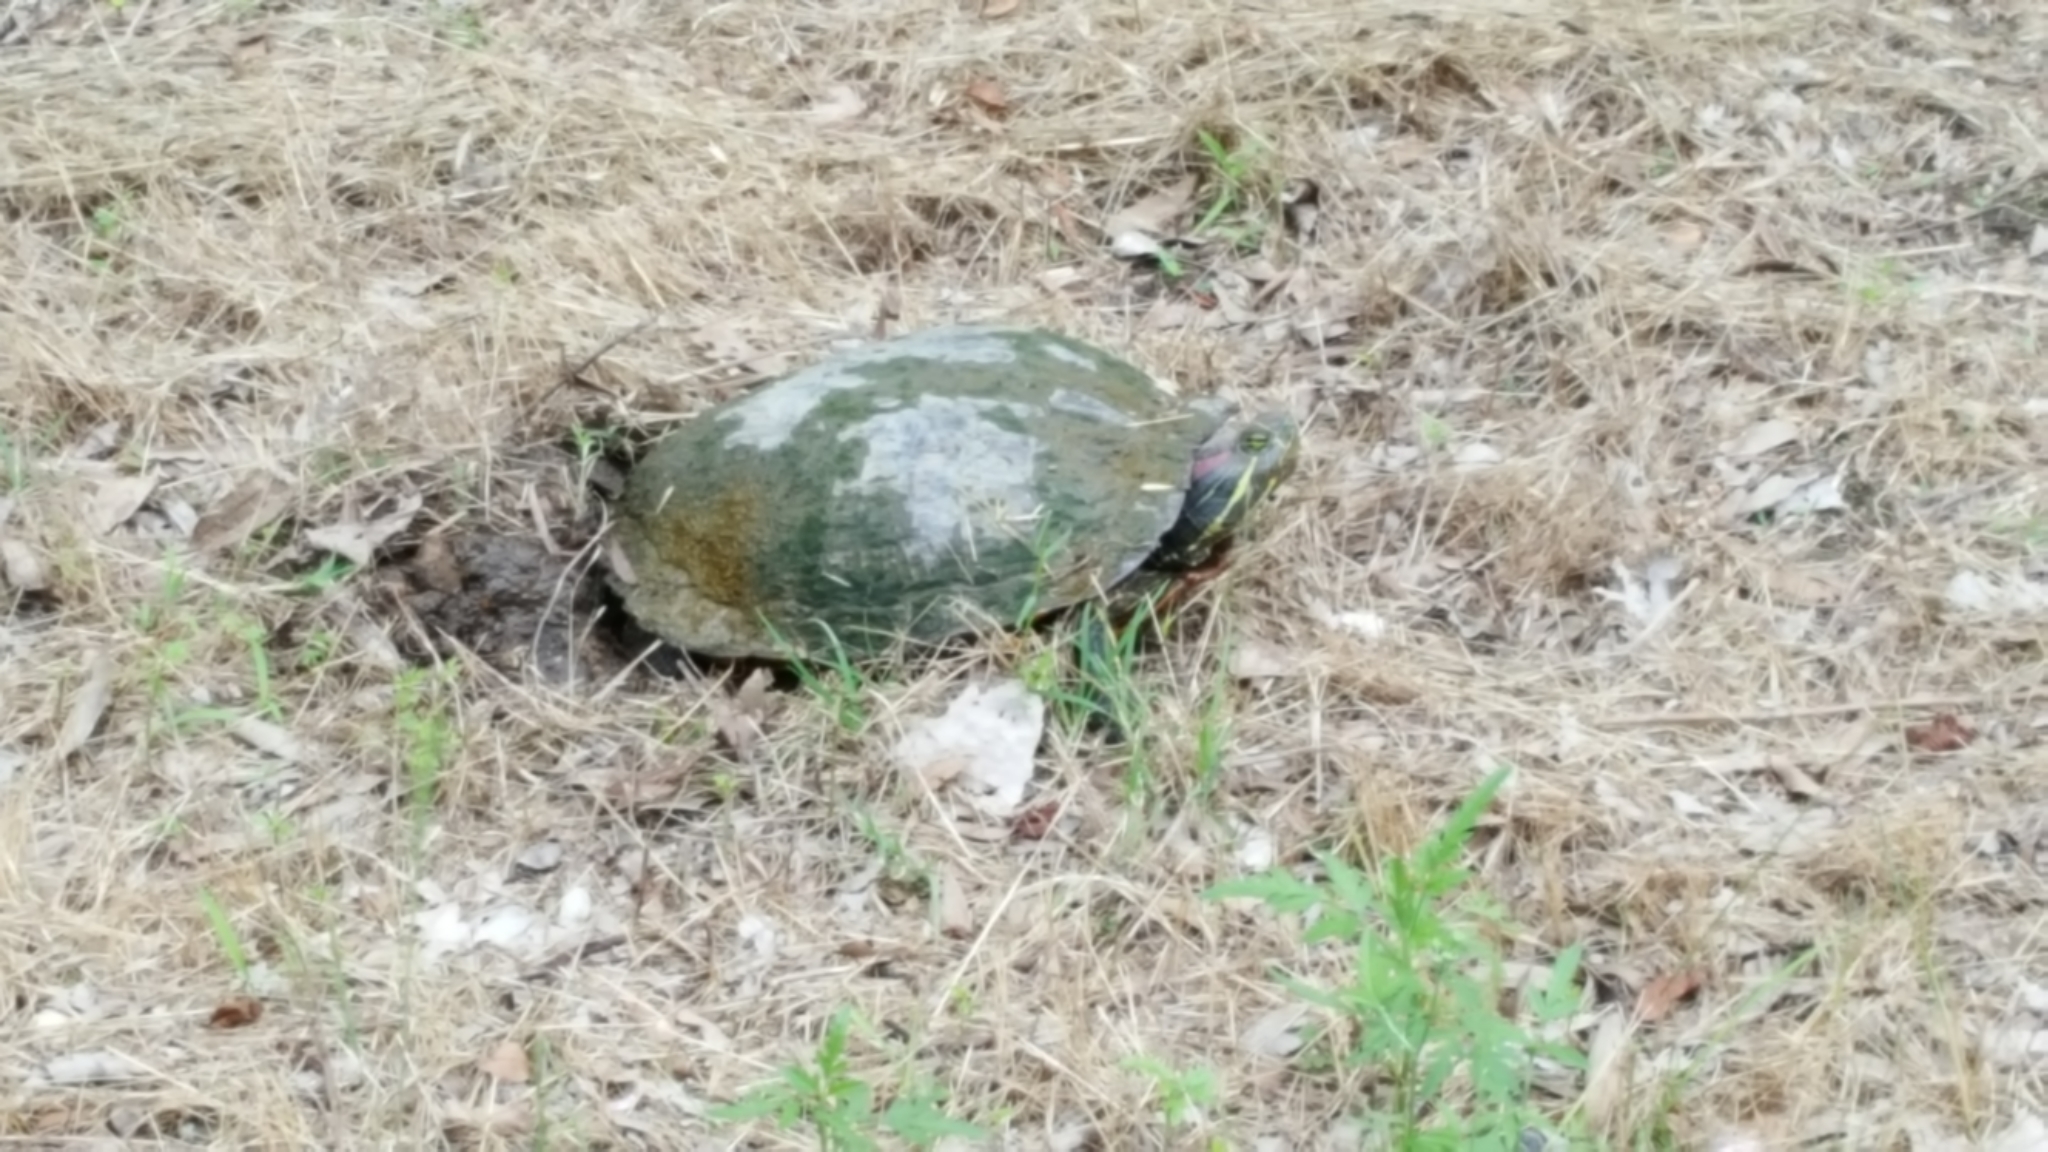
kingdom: Animalia
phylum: Chordata
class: Testudines
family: Emydidae
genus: Trachemys
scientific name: Trachemys scripta
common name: Slider
